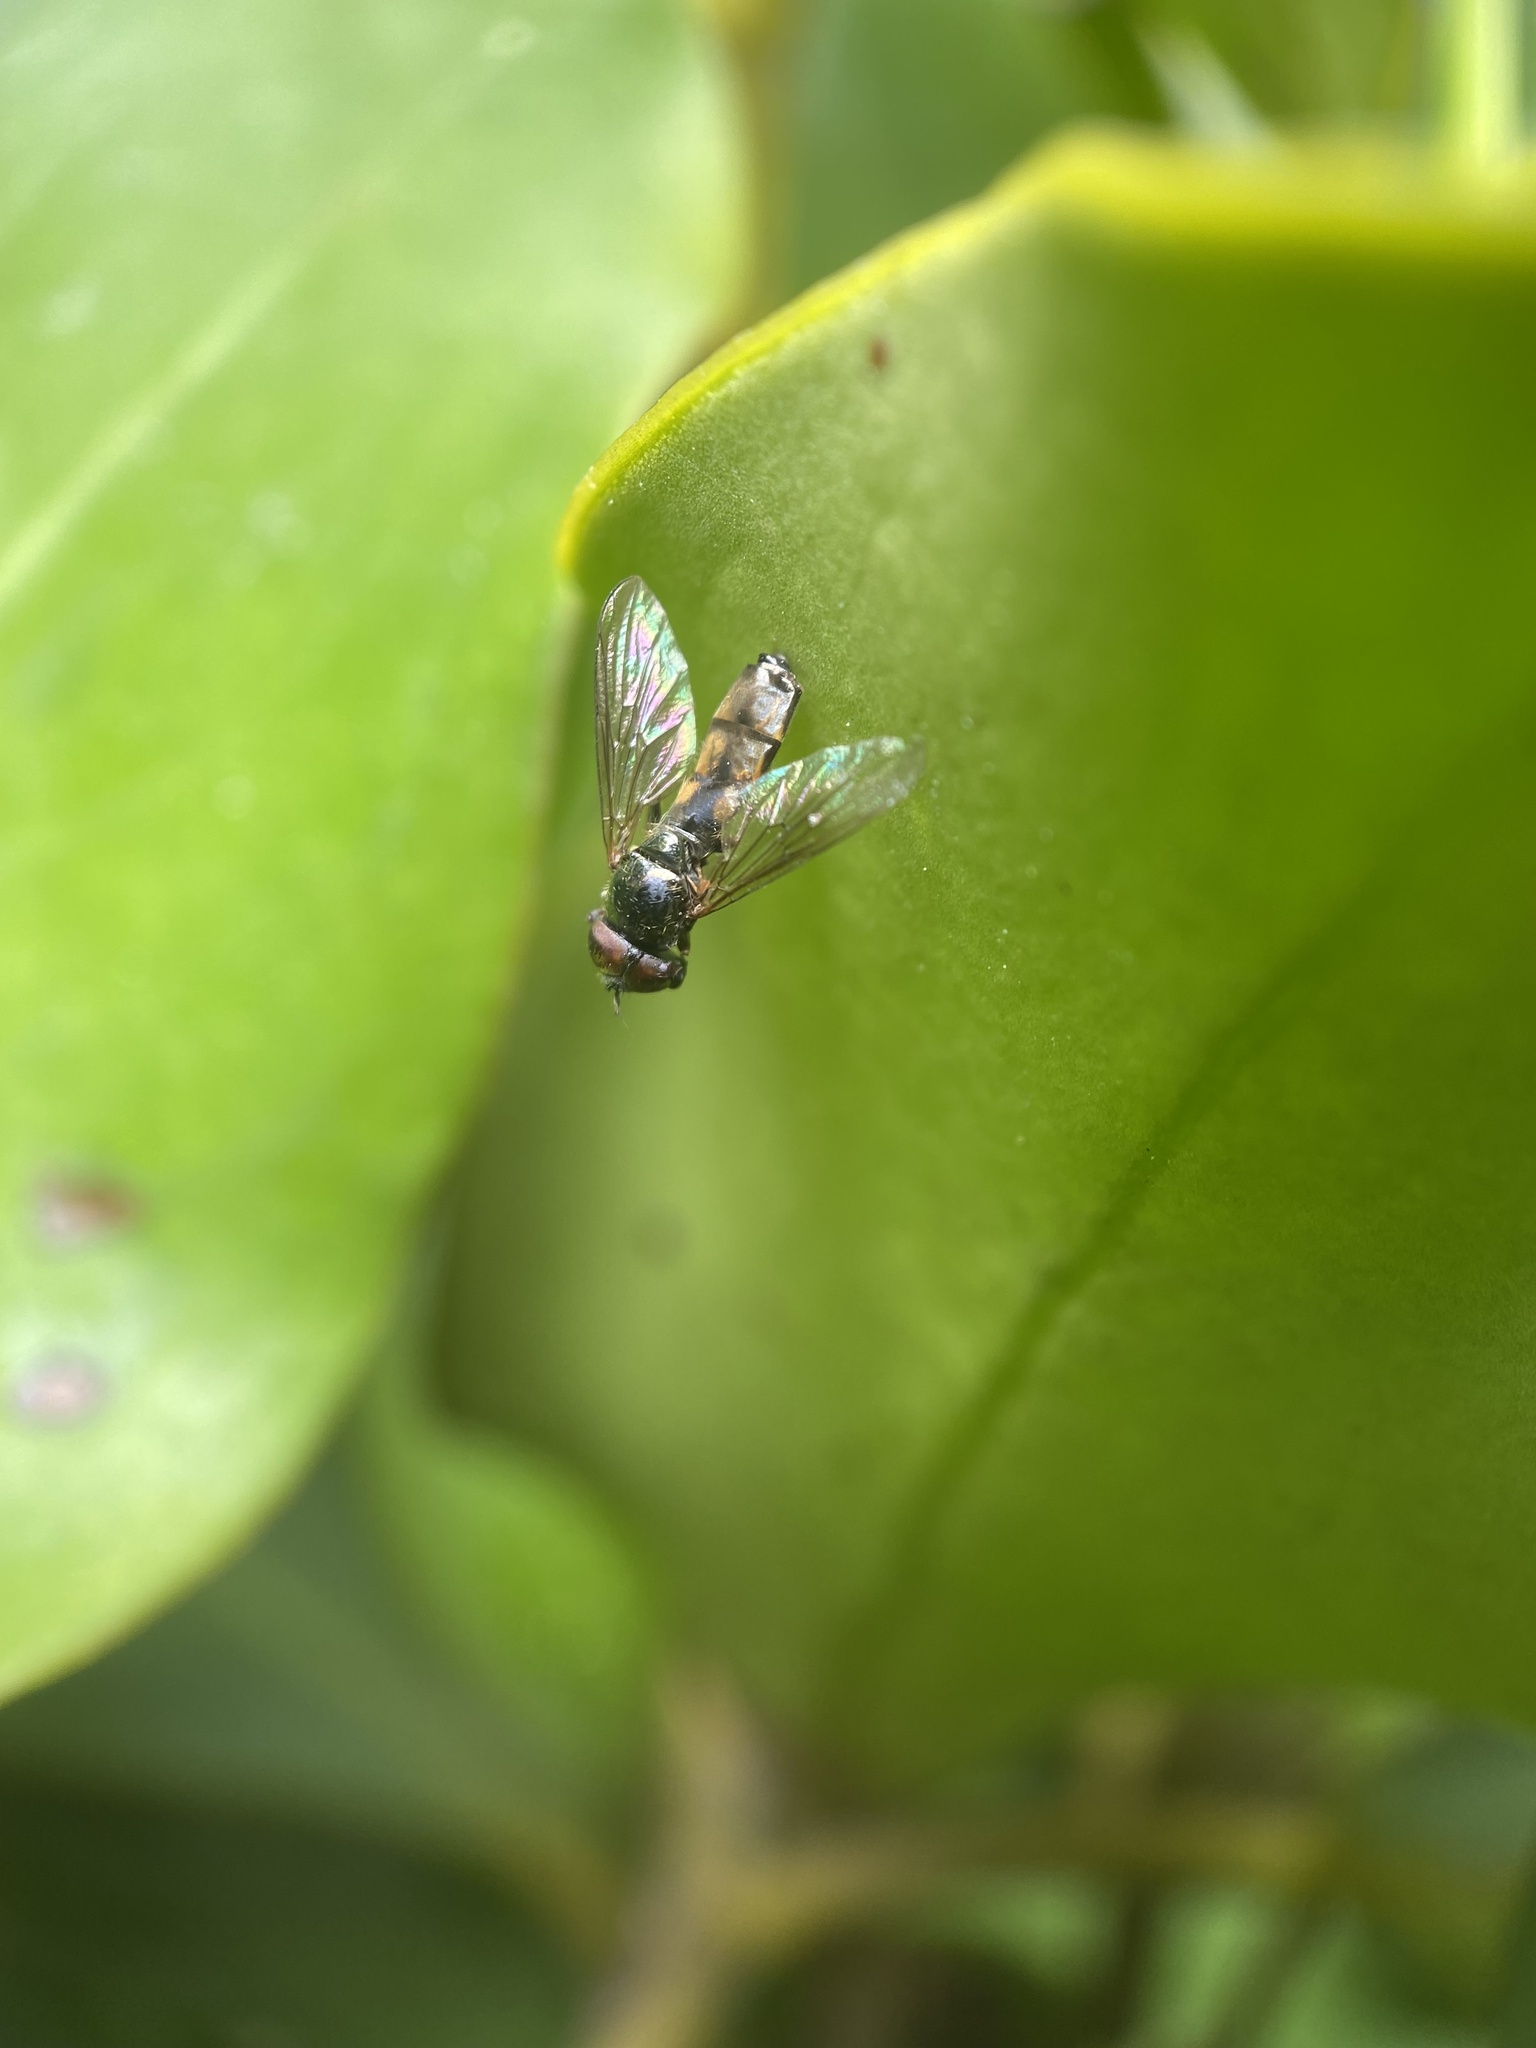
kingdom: Animalia
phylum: Arthropoda
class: Insecta
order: Diptera
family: Syrphidae
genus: Melanostoma
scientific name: Melanostoma fasciatum
